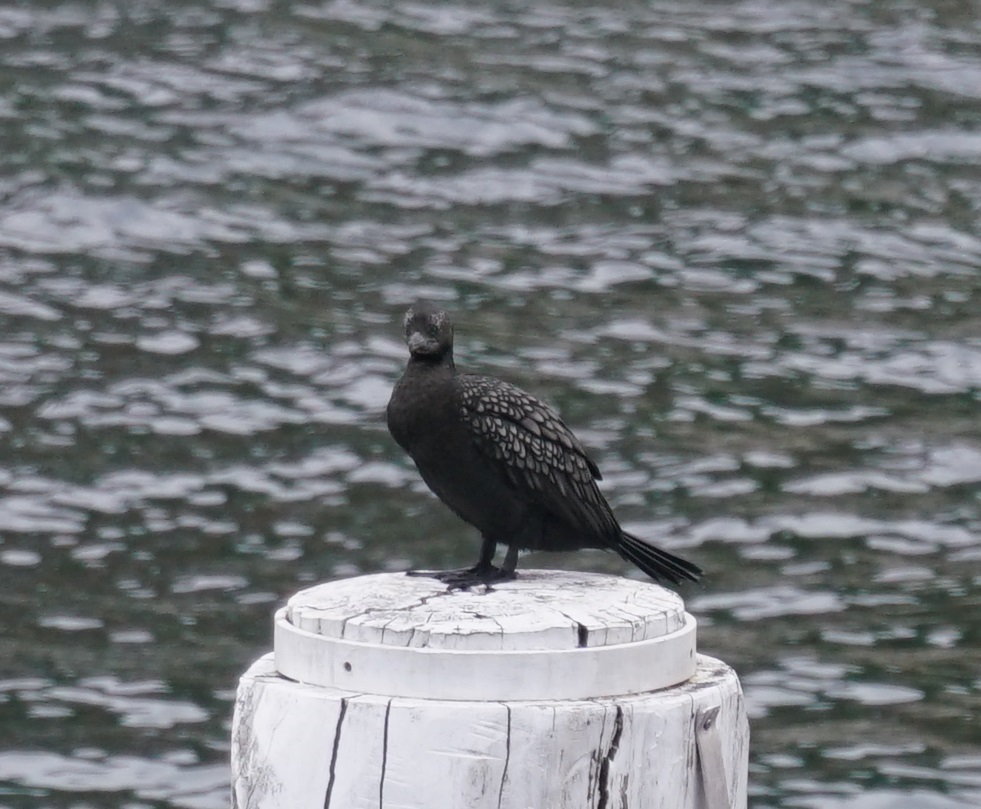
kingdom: Animalia
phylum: Chordata
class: Aves
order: Suliformes
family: Phalacrocoracidae
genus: Phalacrocorax
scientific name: Phalacrocorax sulcirostris
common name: Little black cormorant
